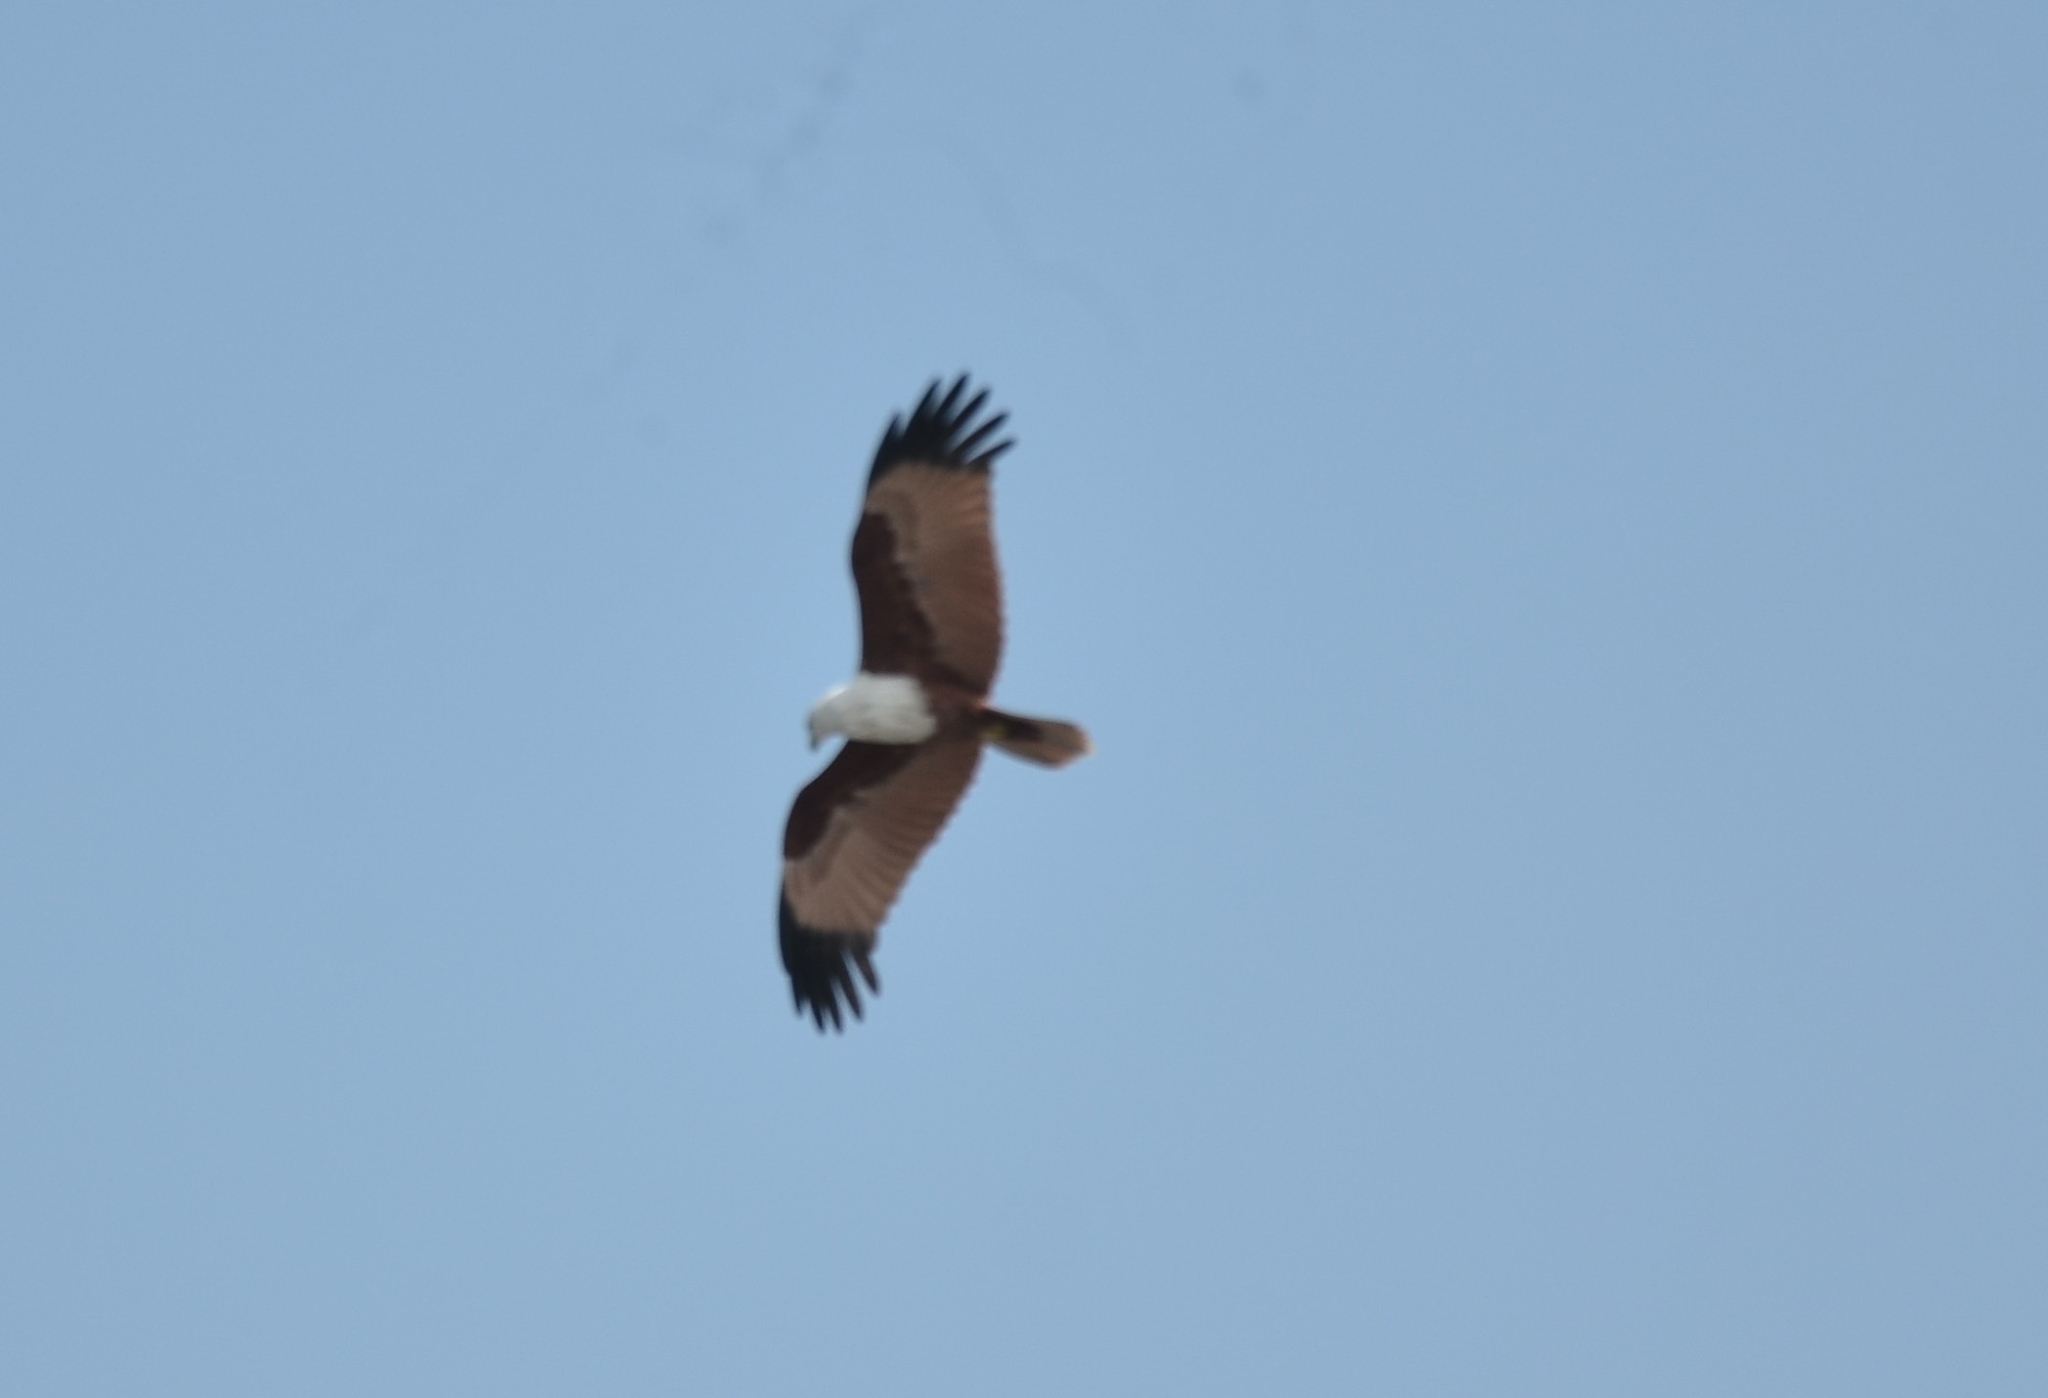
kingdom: Animalia
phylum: Chordata
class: Aves
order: Accipitriformes
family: Accipitridae
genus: Haliastur
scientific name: Haliastur indus
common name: Brahminy kite
